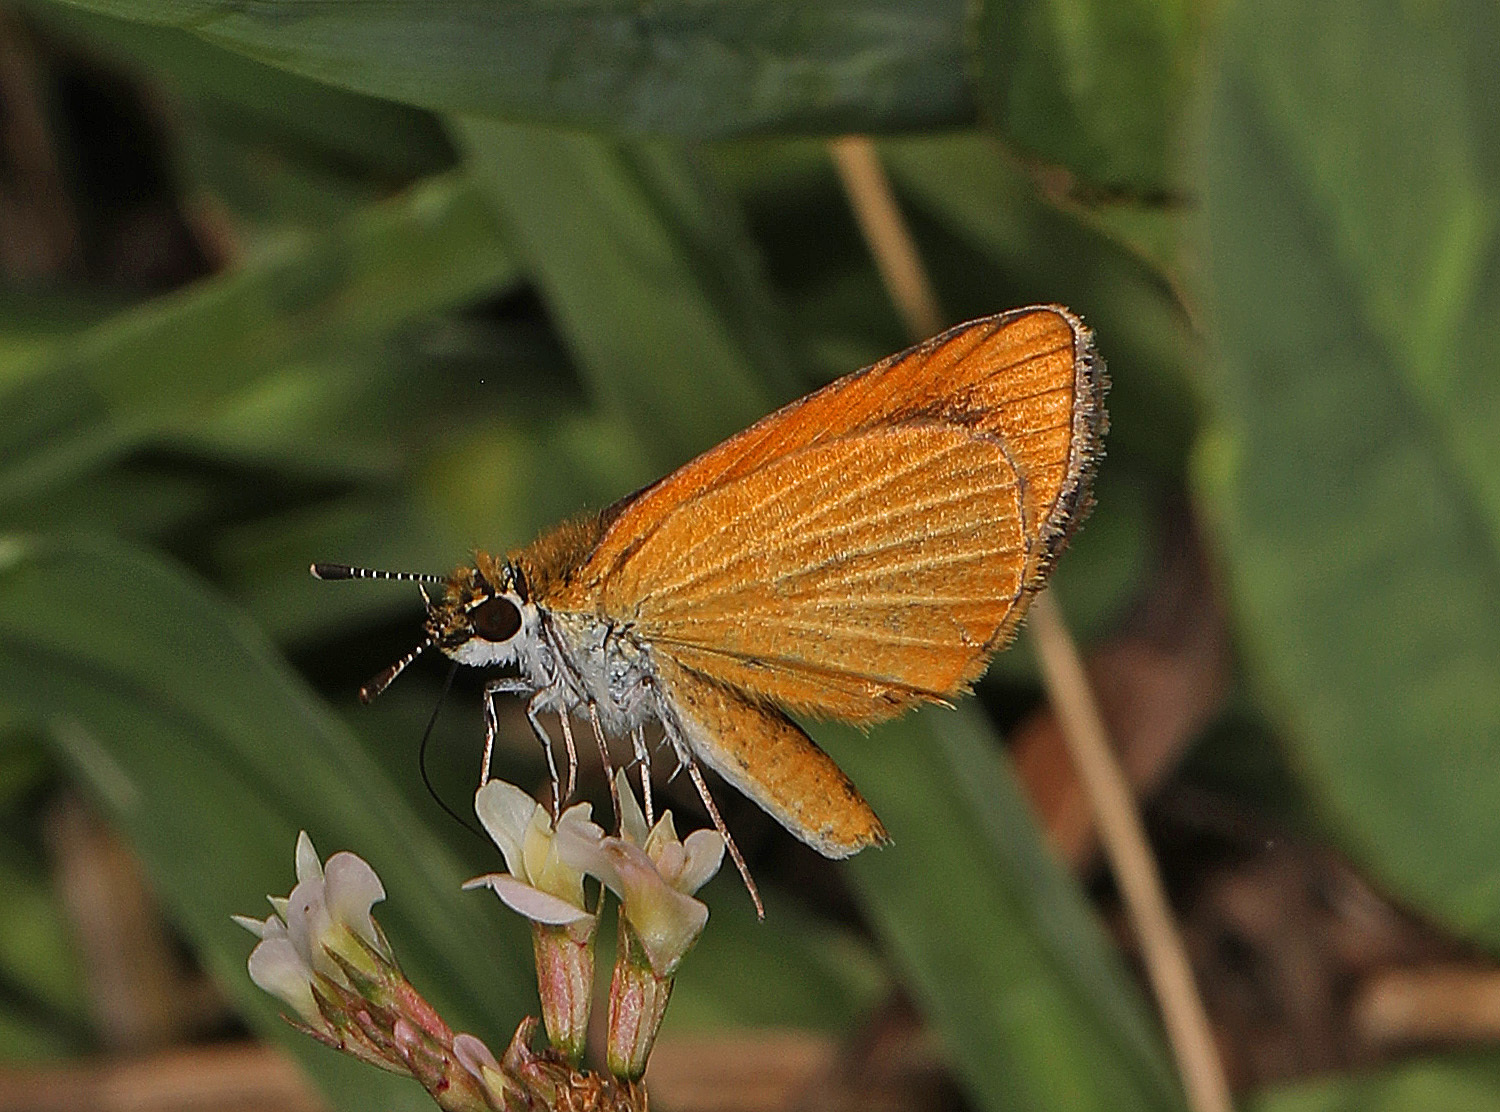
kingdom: Animalia
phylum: Arthropoda
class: Insecta
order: Lepidoptera
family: Hesperiidae
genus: Ancyloxypha
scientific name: Ancyloxypha numitor
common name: Least skipper
